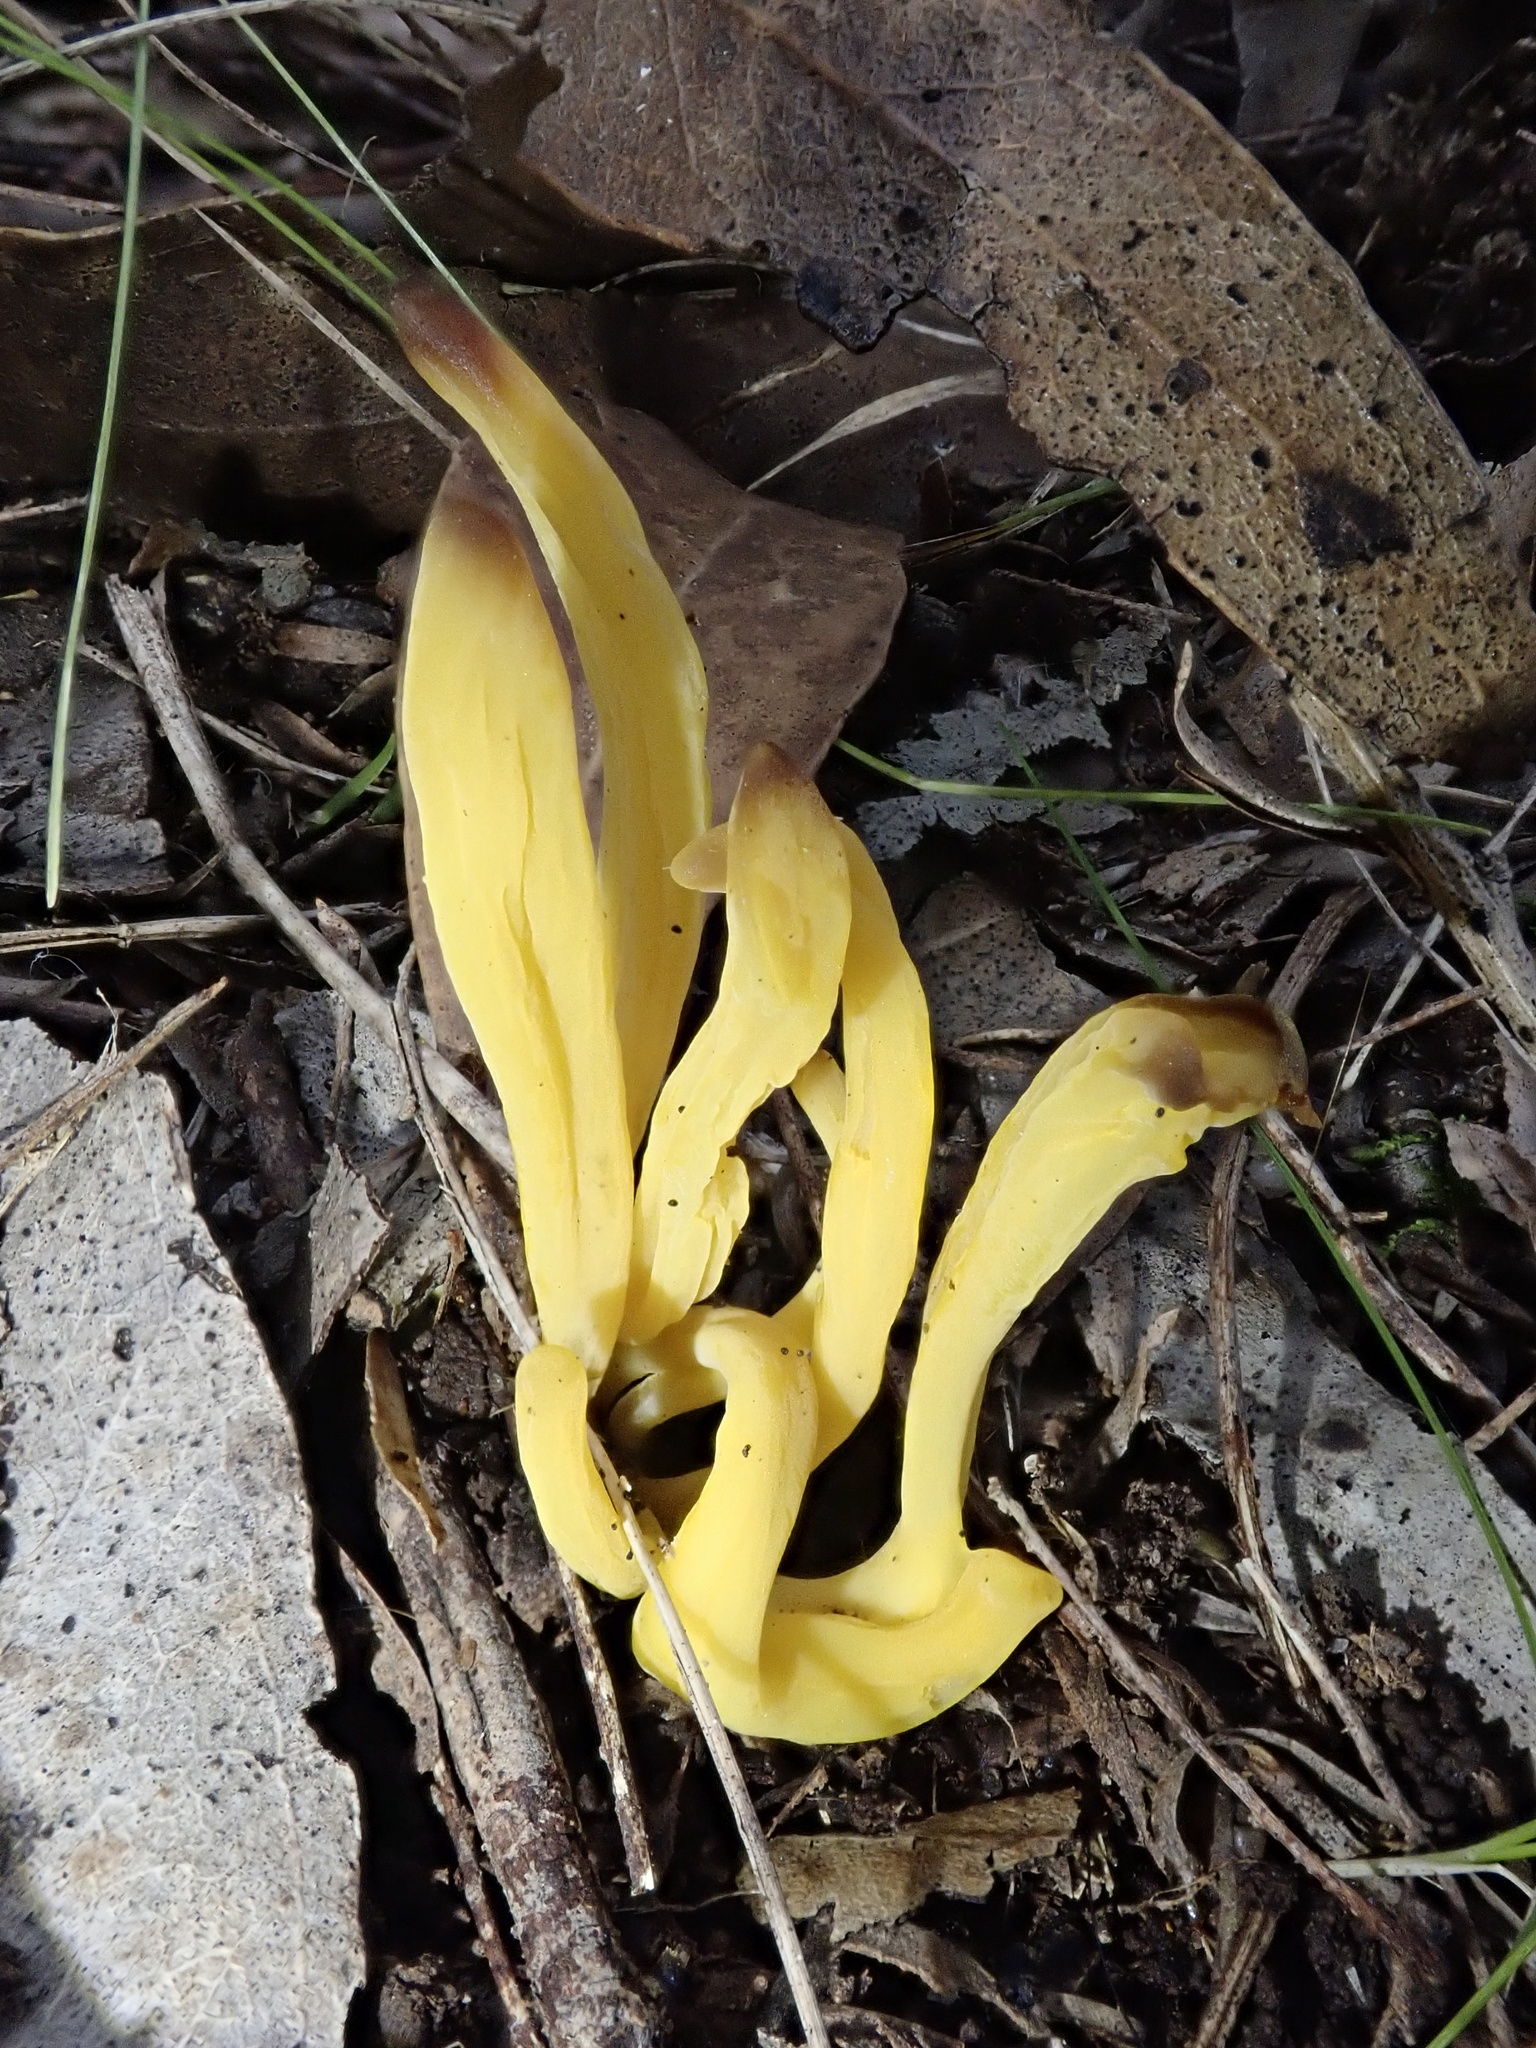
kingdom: Fungi
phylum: Basidiomycota
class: Agaricomycetes
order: Agaricales
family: Clavariaceae
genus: Clavulinopsis
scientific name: Clavulinopsis depokensis
